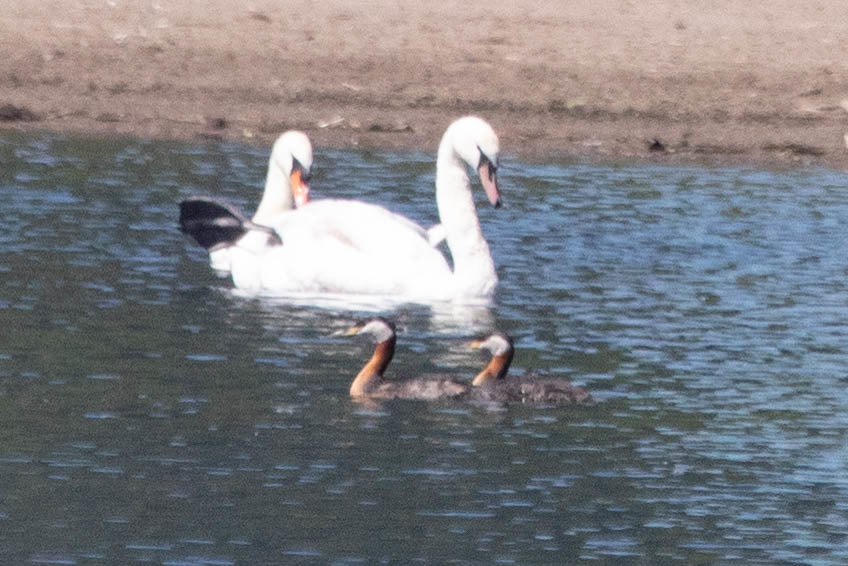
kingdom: Animalia
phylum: Chordata
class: Aves
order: Podicipediformes
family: Podicipedidae
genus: Podiceps
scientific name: Podiceps grisegena
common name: Red-necked grebe
